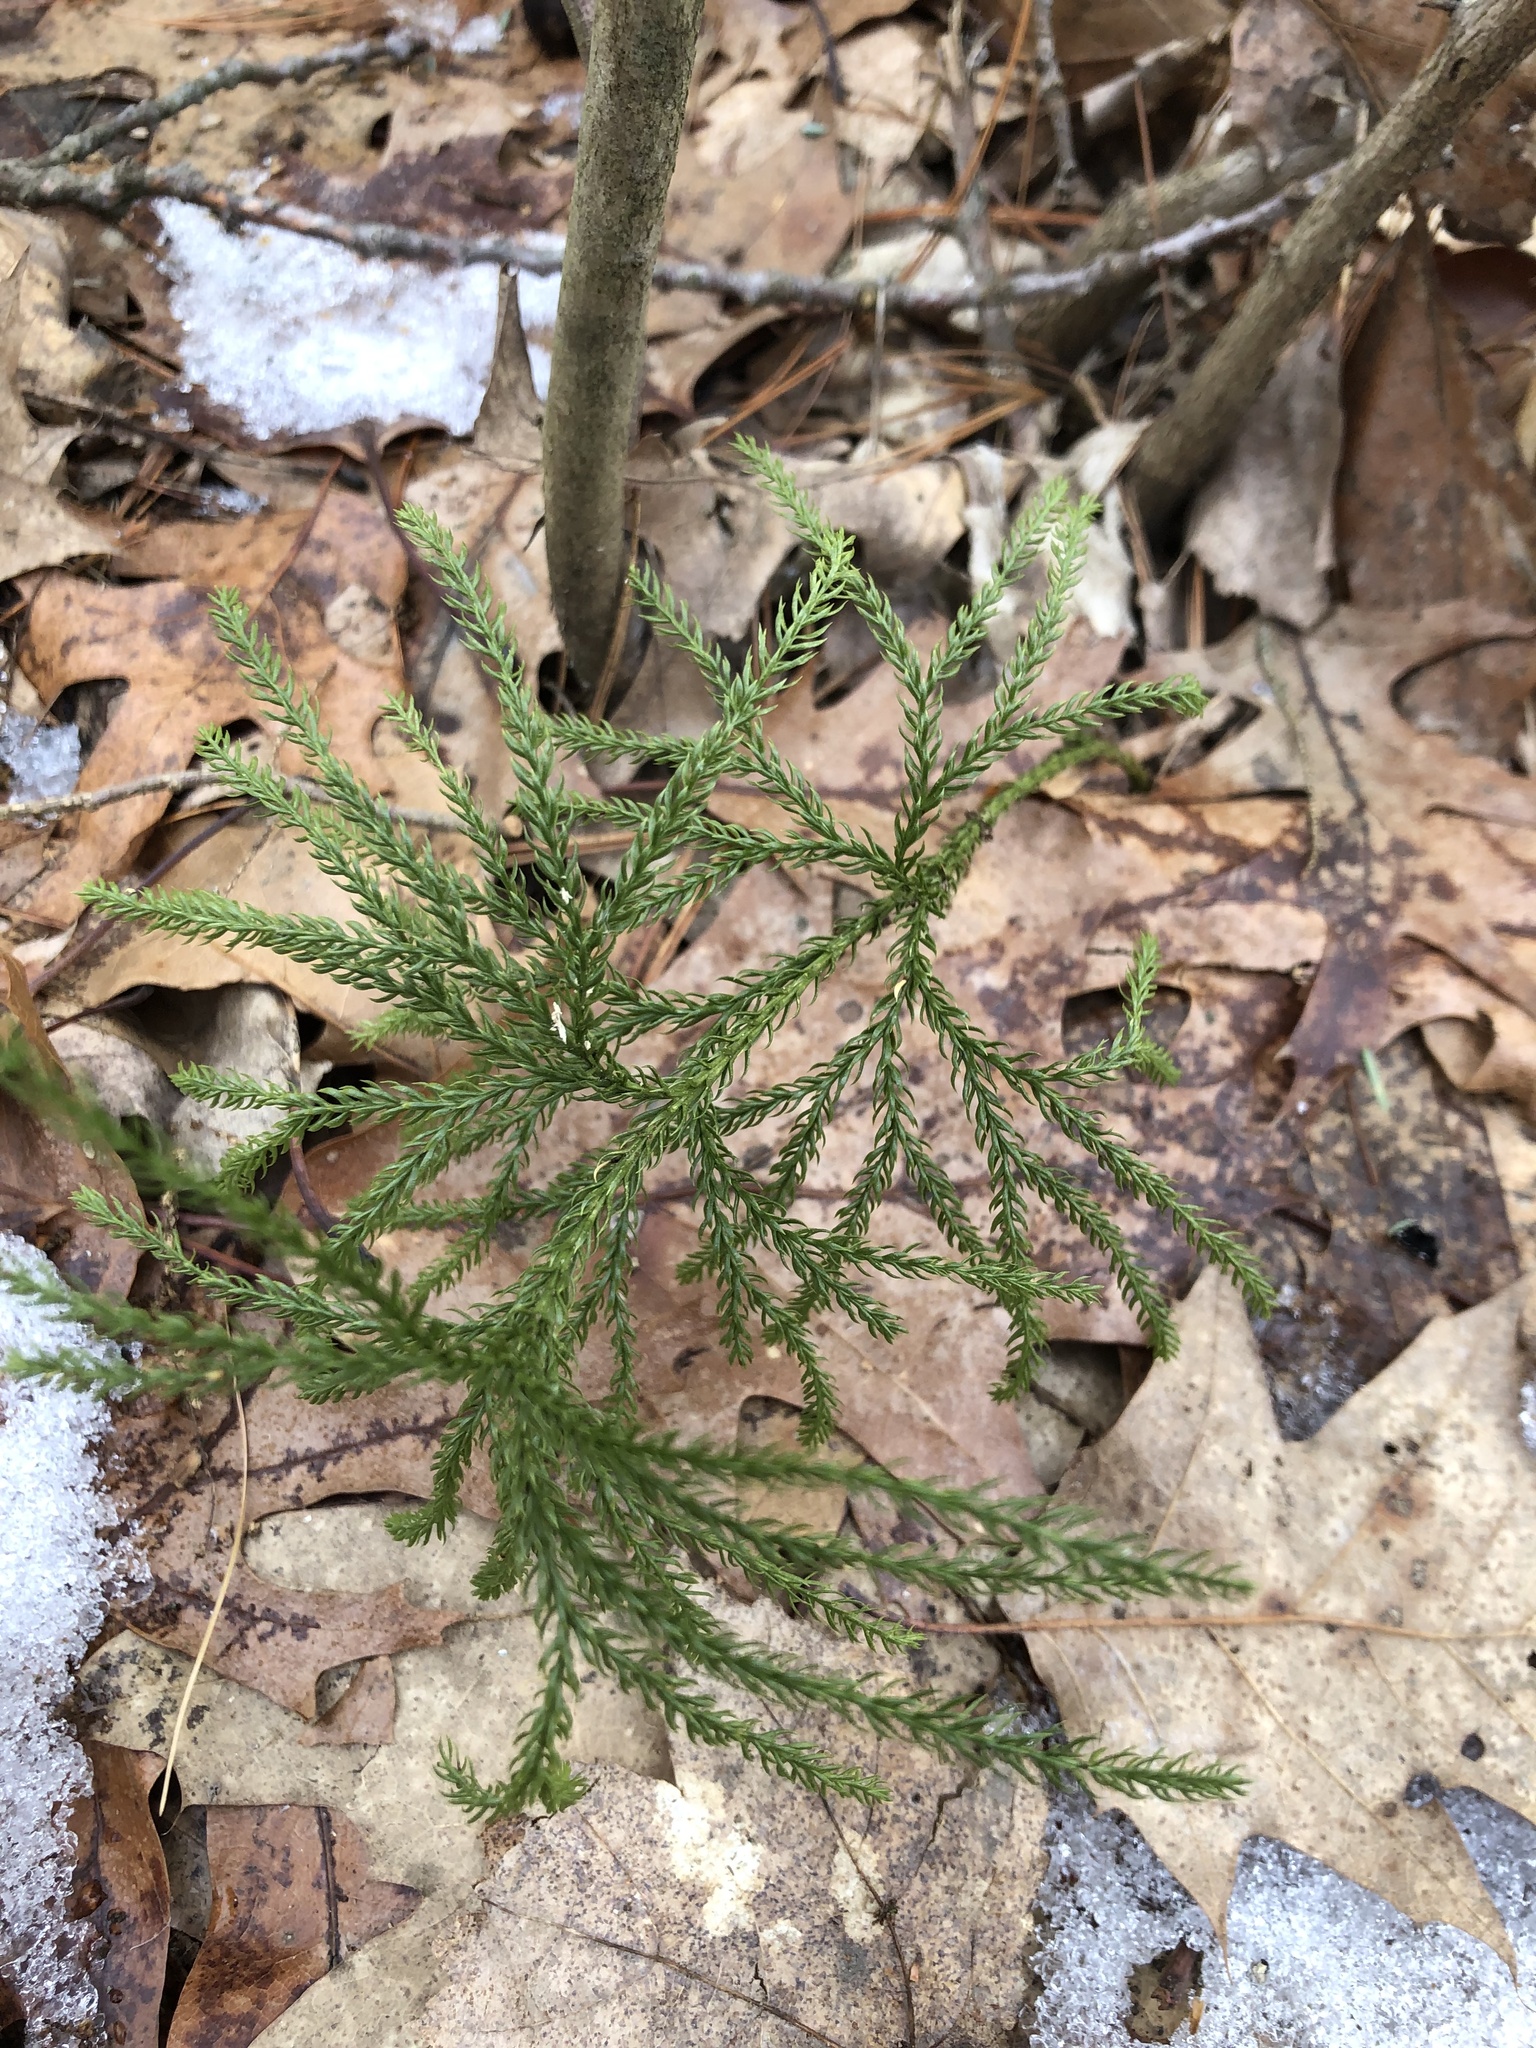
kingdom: Plantae
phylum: Tracheophyta
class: Lycopodiopsida
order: Lycopodiales
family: Lycopodiaceae
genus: Dendrolycopodium
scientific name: Dendrolycopodium hickeyi
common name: Hickey's clubmoss
